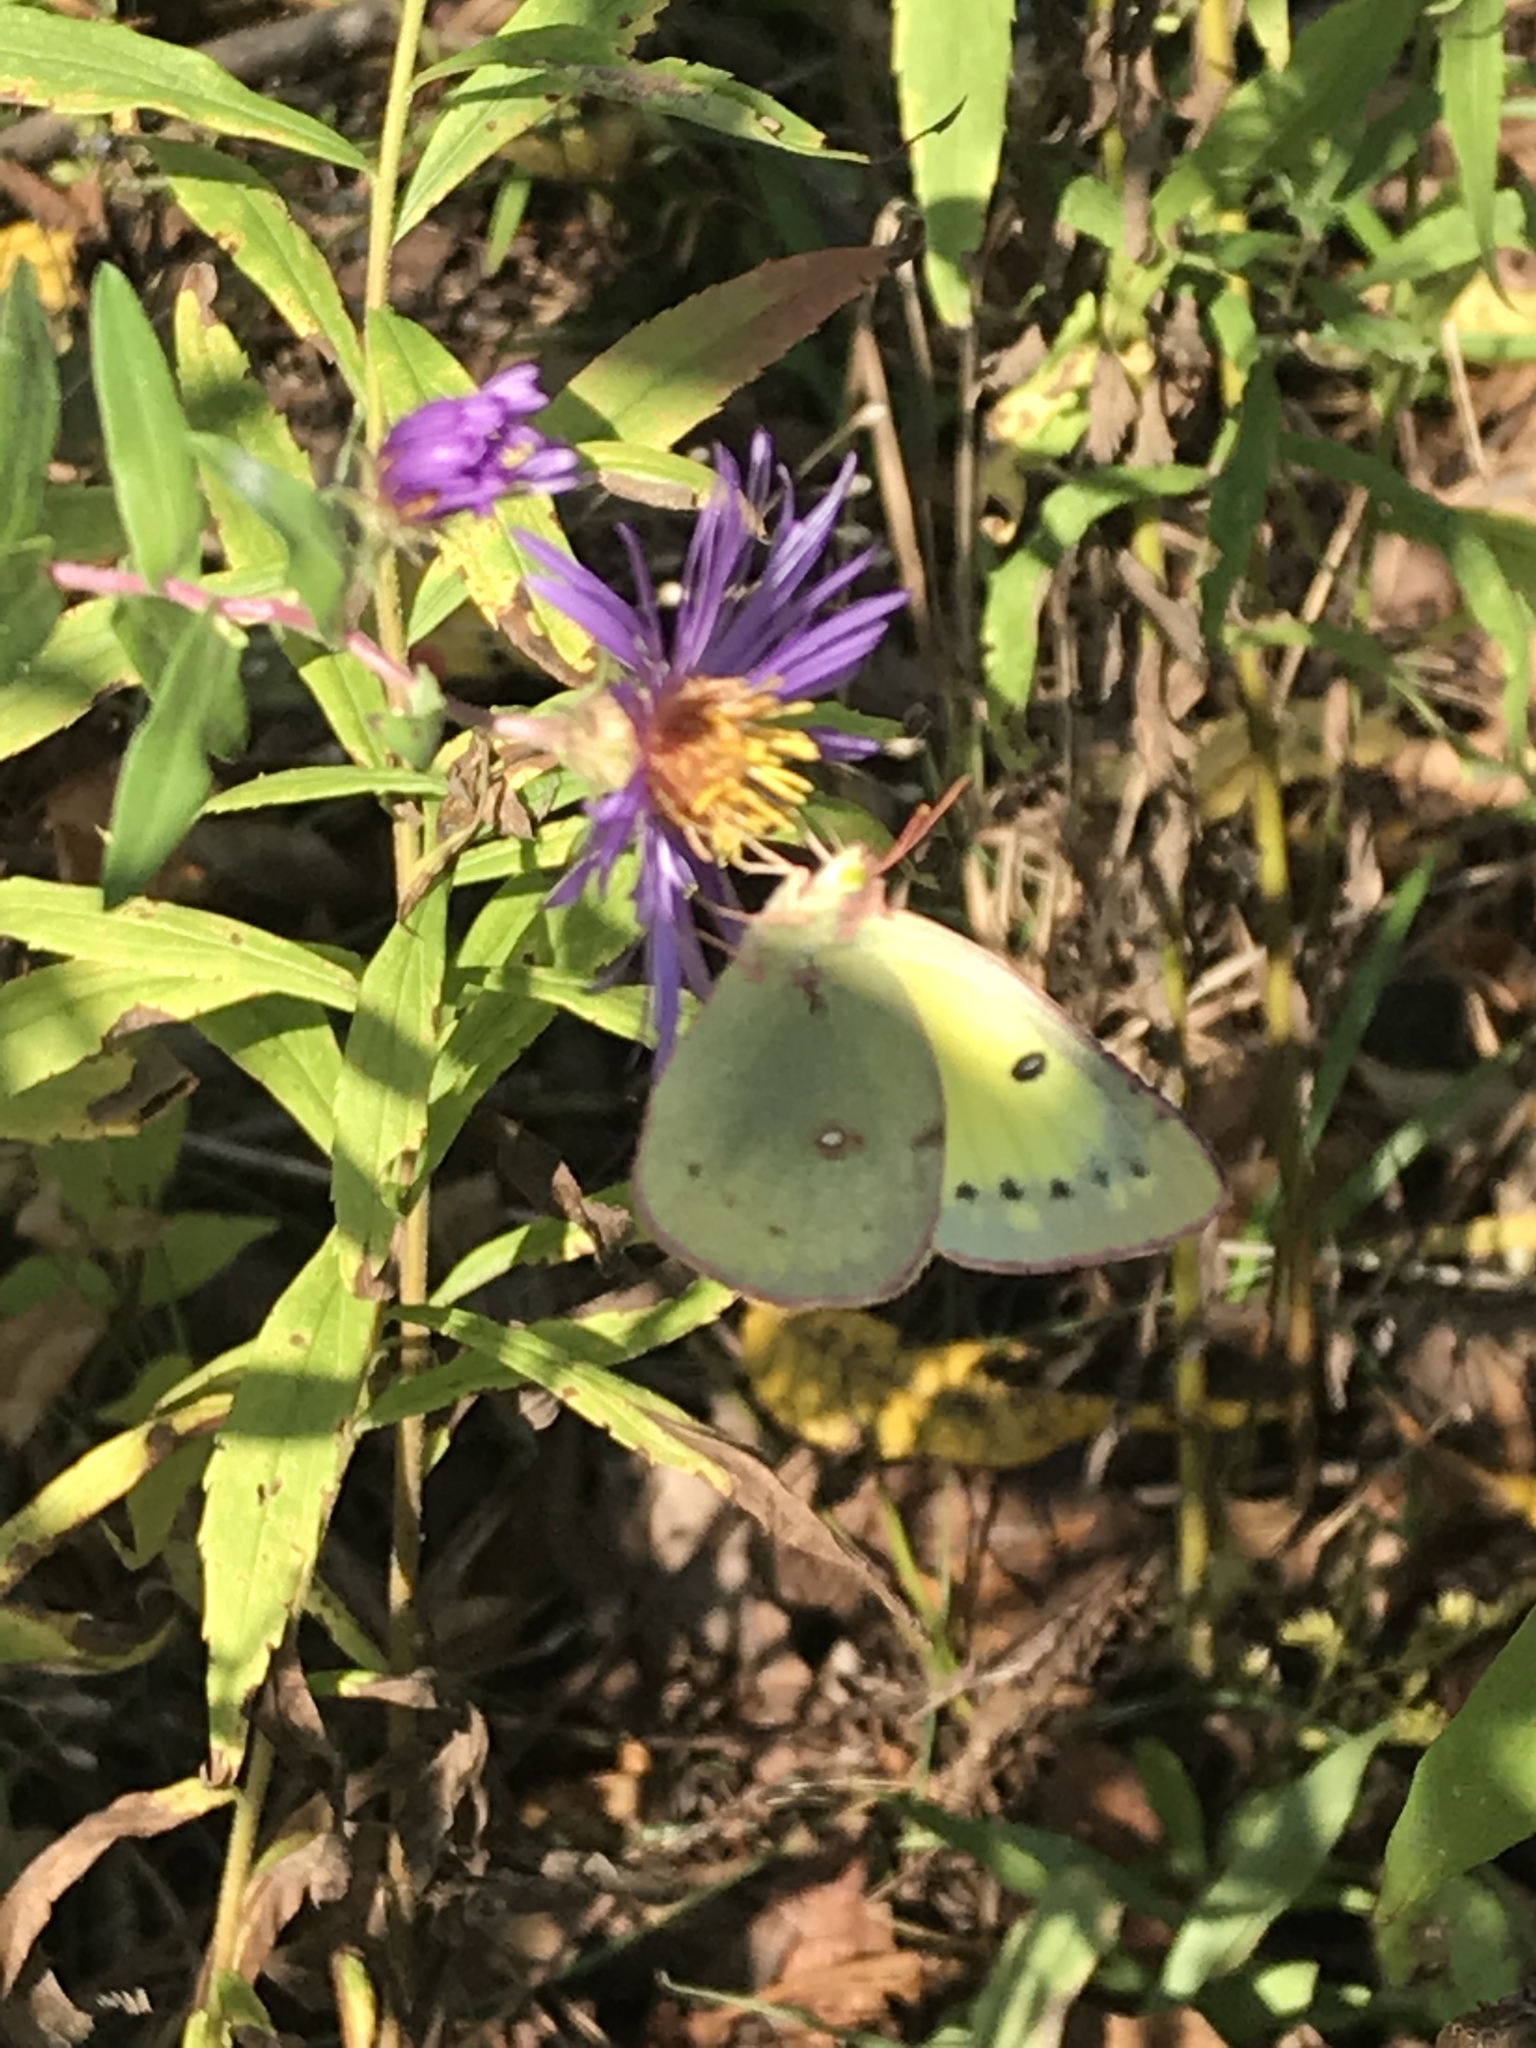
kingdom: Animalia
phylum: Arthropoda
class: Insecta
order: Lepidoptera
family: Pieridae
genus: Colias
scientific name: Colias philodice
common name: Clouded sulphur
